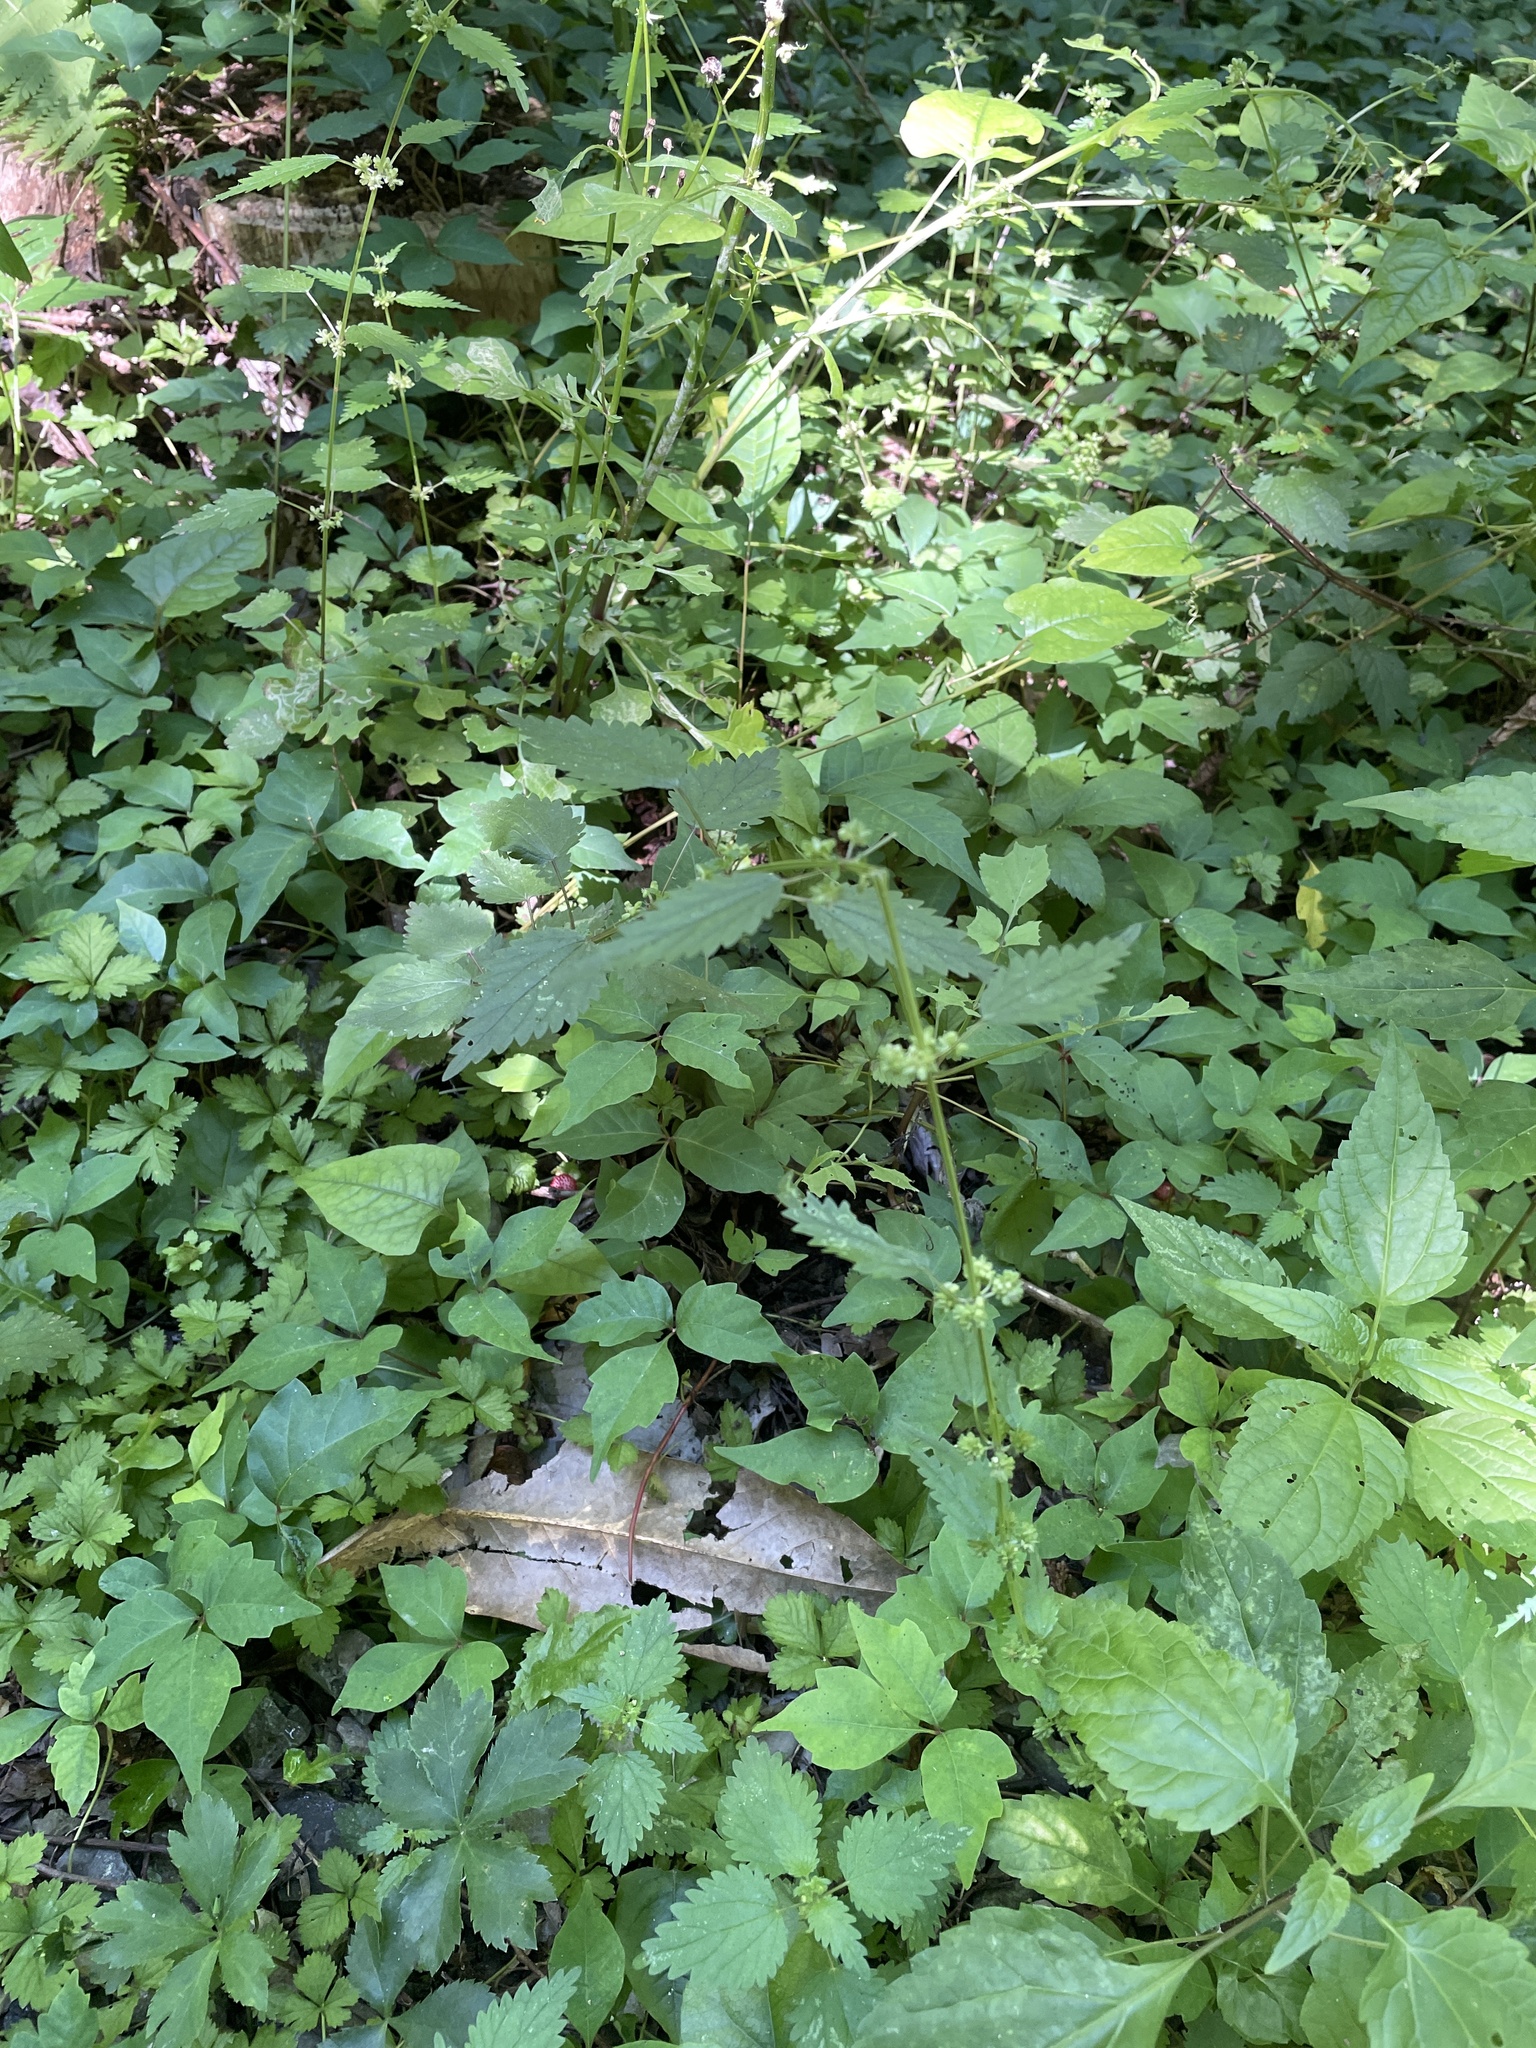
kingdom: Plantae
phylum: Tracheophyta
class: Magnoliopsida
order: Rosales
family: Urticaceae
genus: Urtica
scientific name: Urtica chamaedryoides
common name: Heart-leaf nettle
